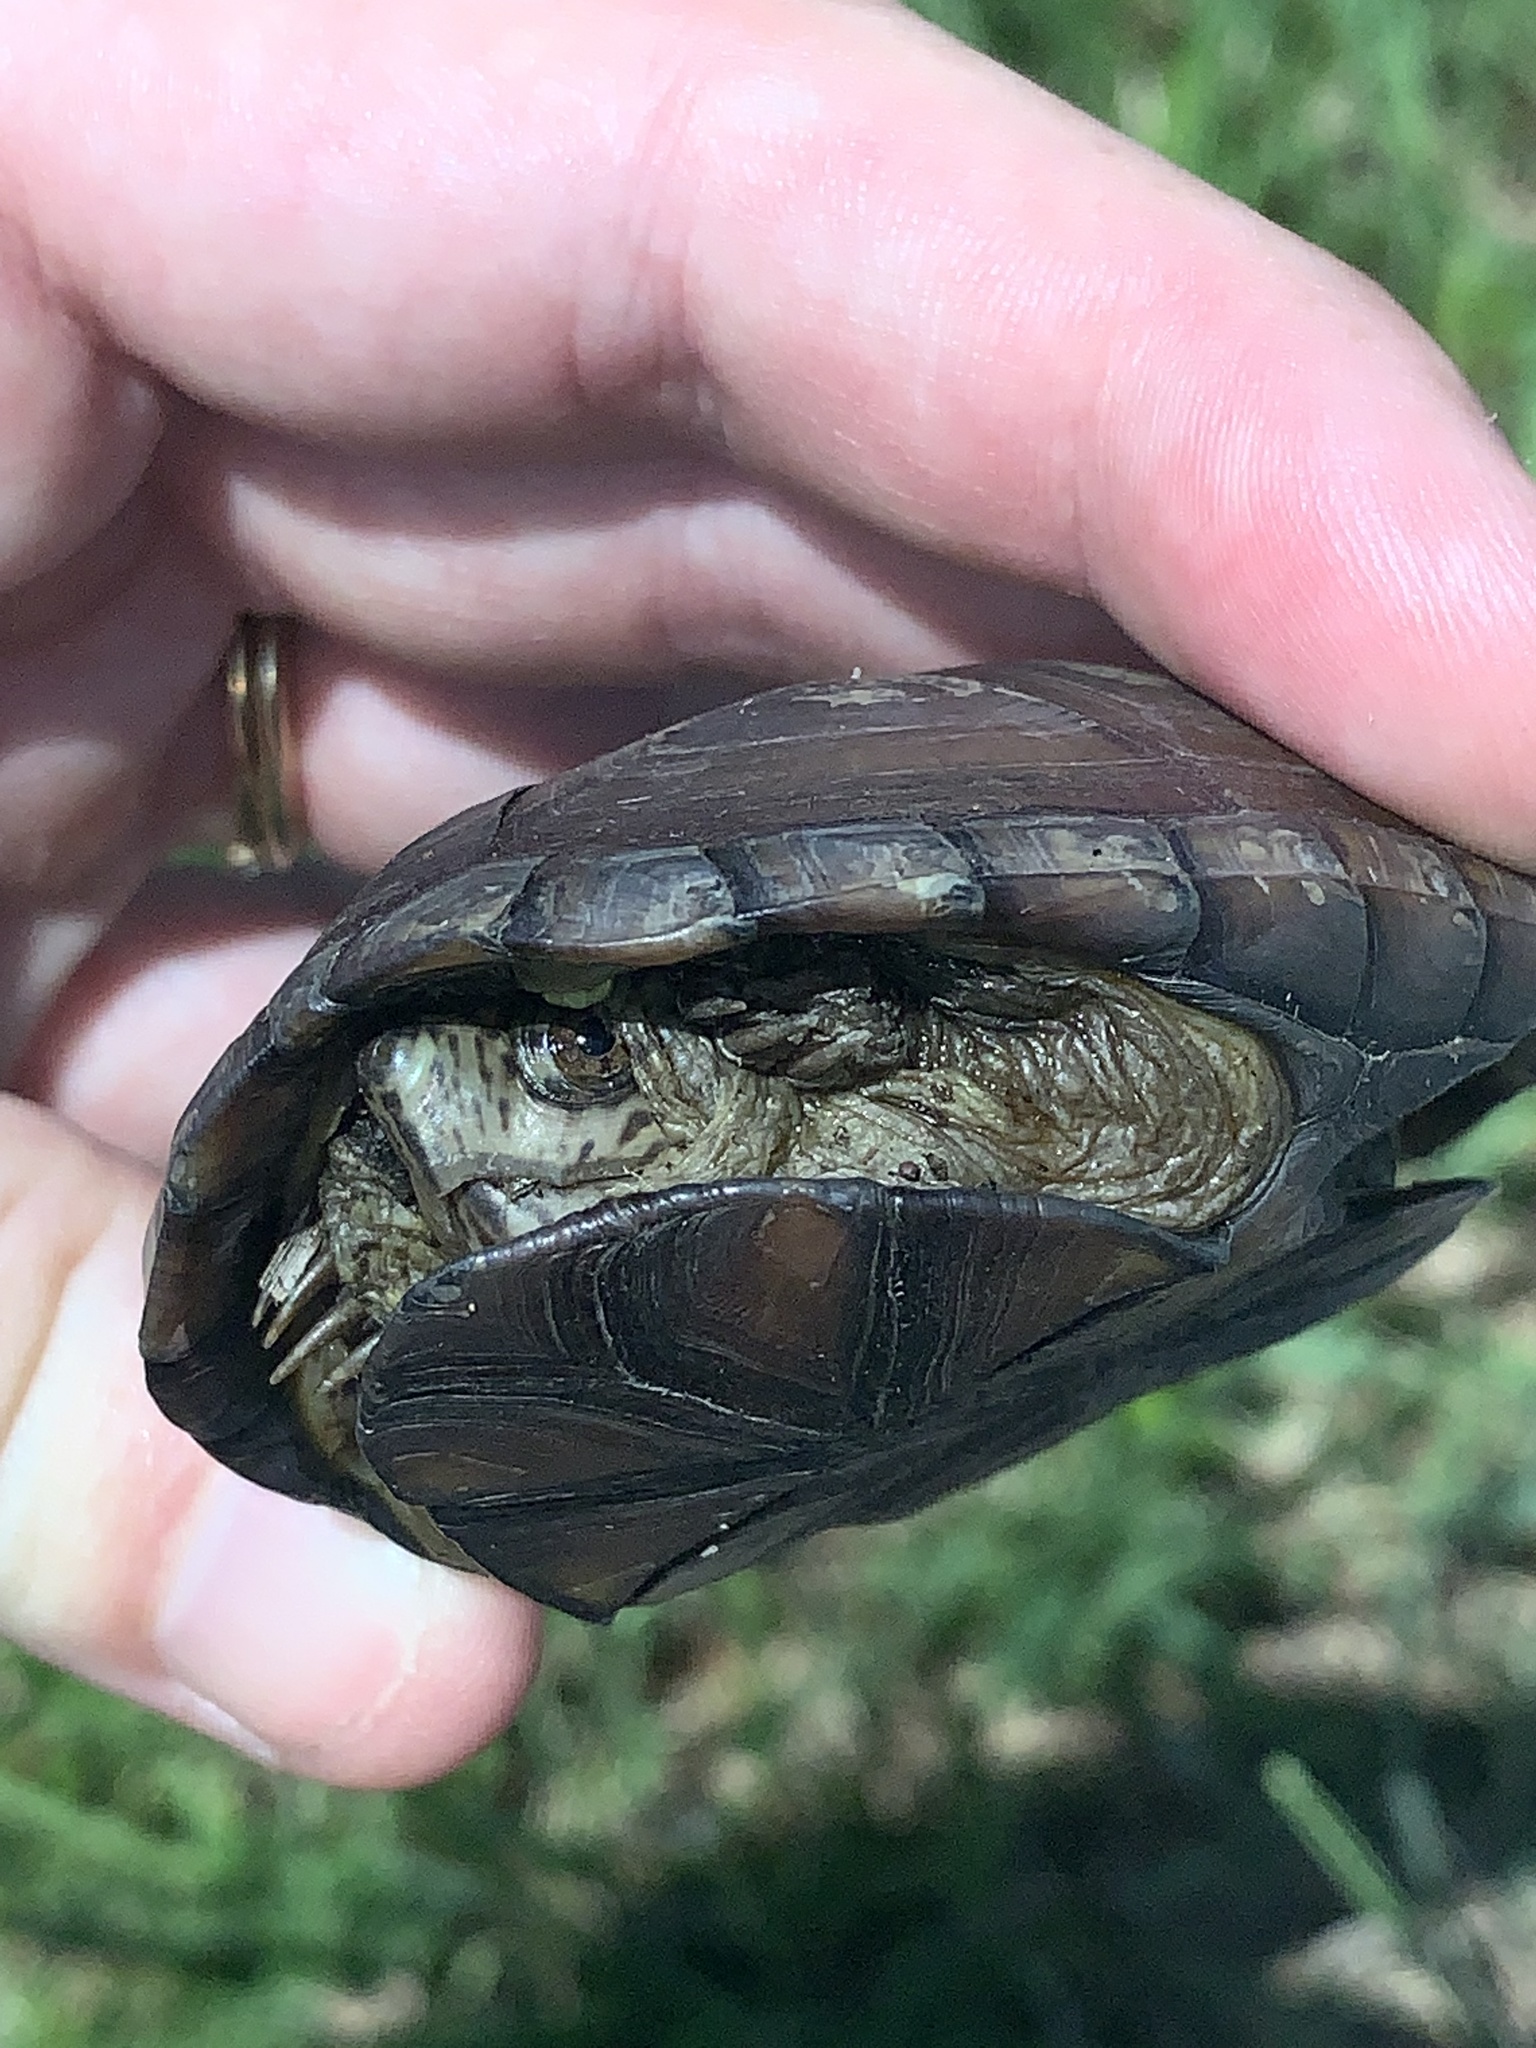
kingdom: Animalia
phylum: Chordata
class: Testudines
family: Kinosternidae
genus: Kinosternon
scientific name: Kinosternon subrubrum
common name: Eastern mud turtle
